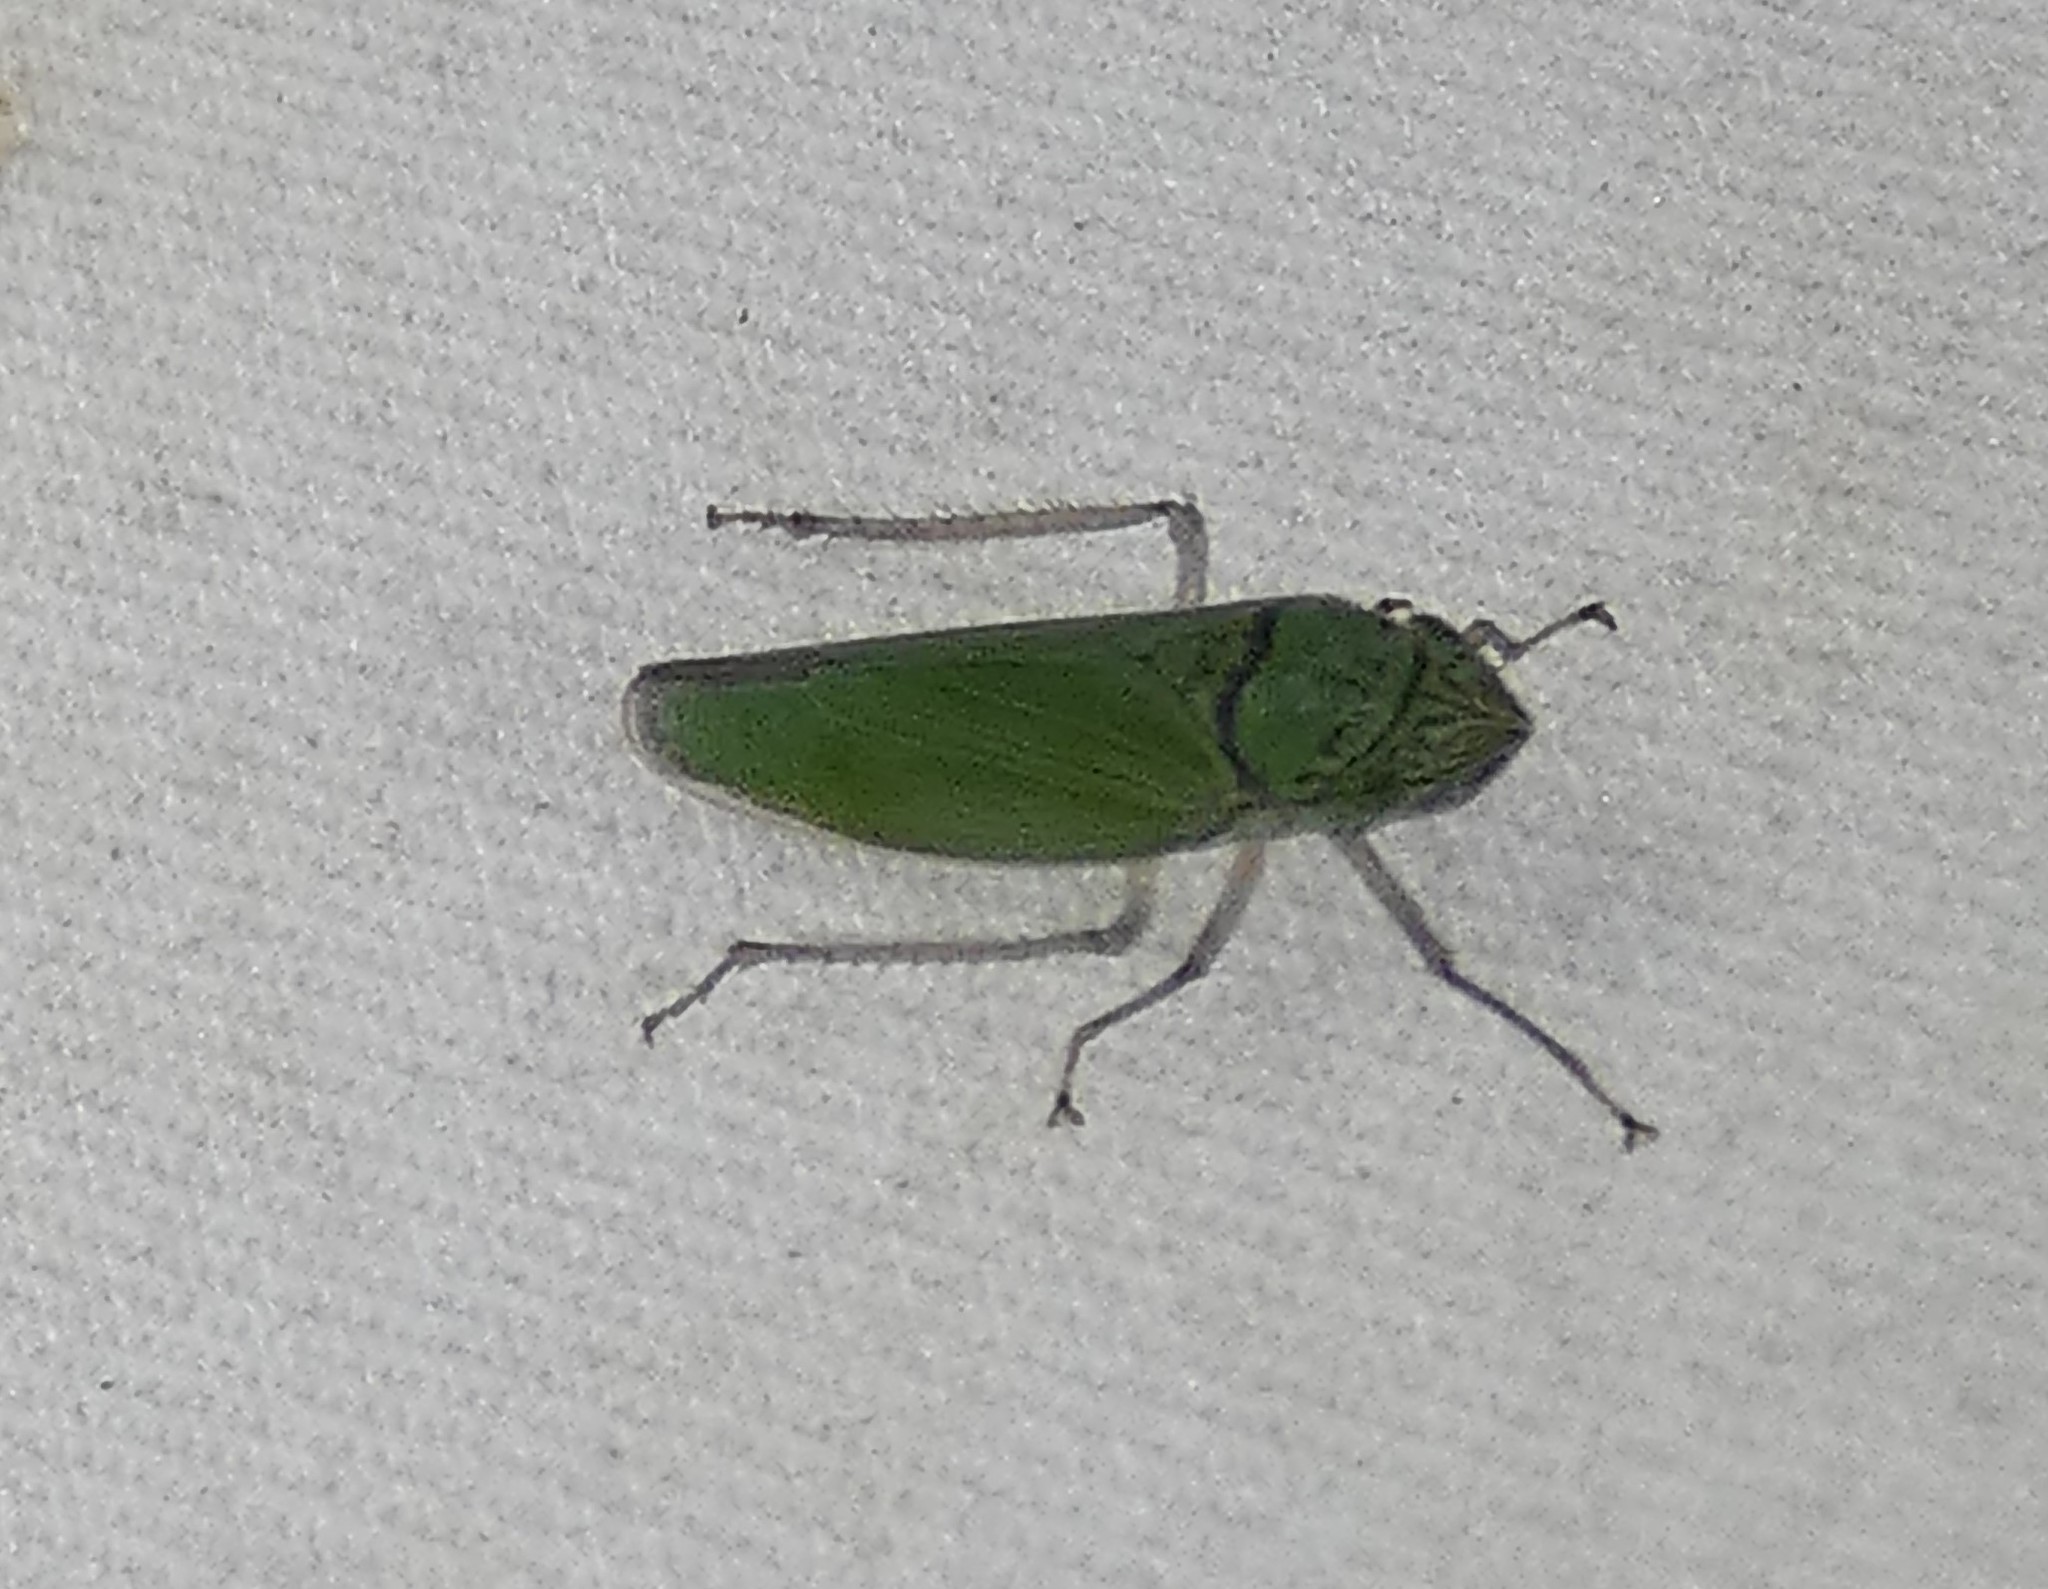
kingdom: Animalia
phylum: Arthropoda
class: Insecta
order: Hemiptera
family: Cicadellidae
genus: Draeculacephala
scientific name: Draeculacephala inscripta
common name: Leafhopper
